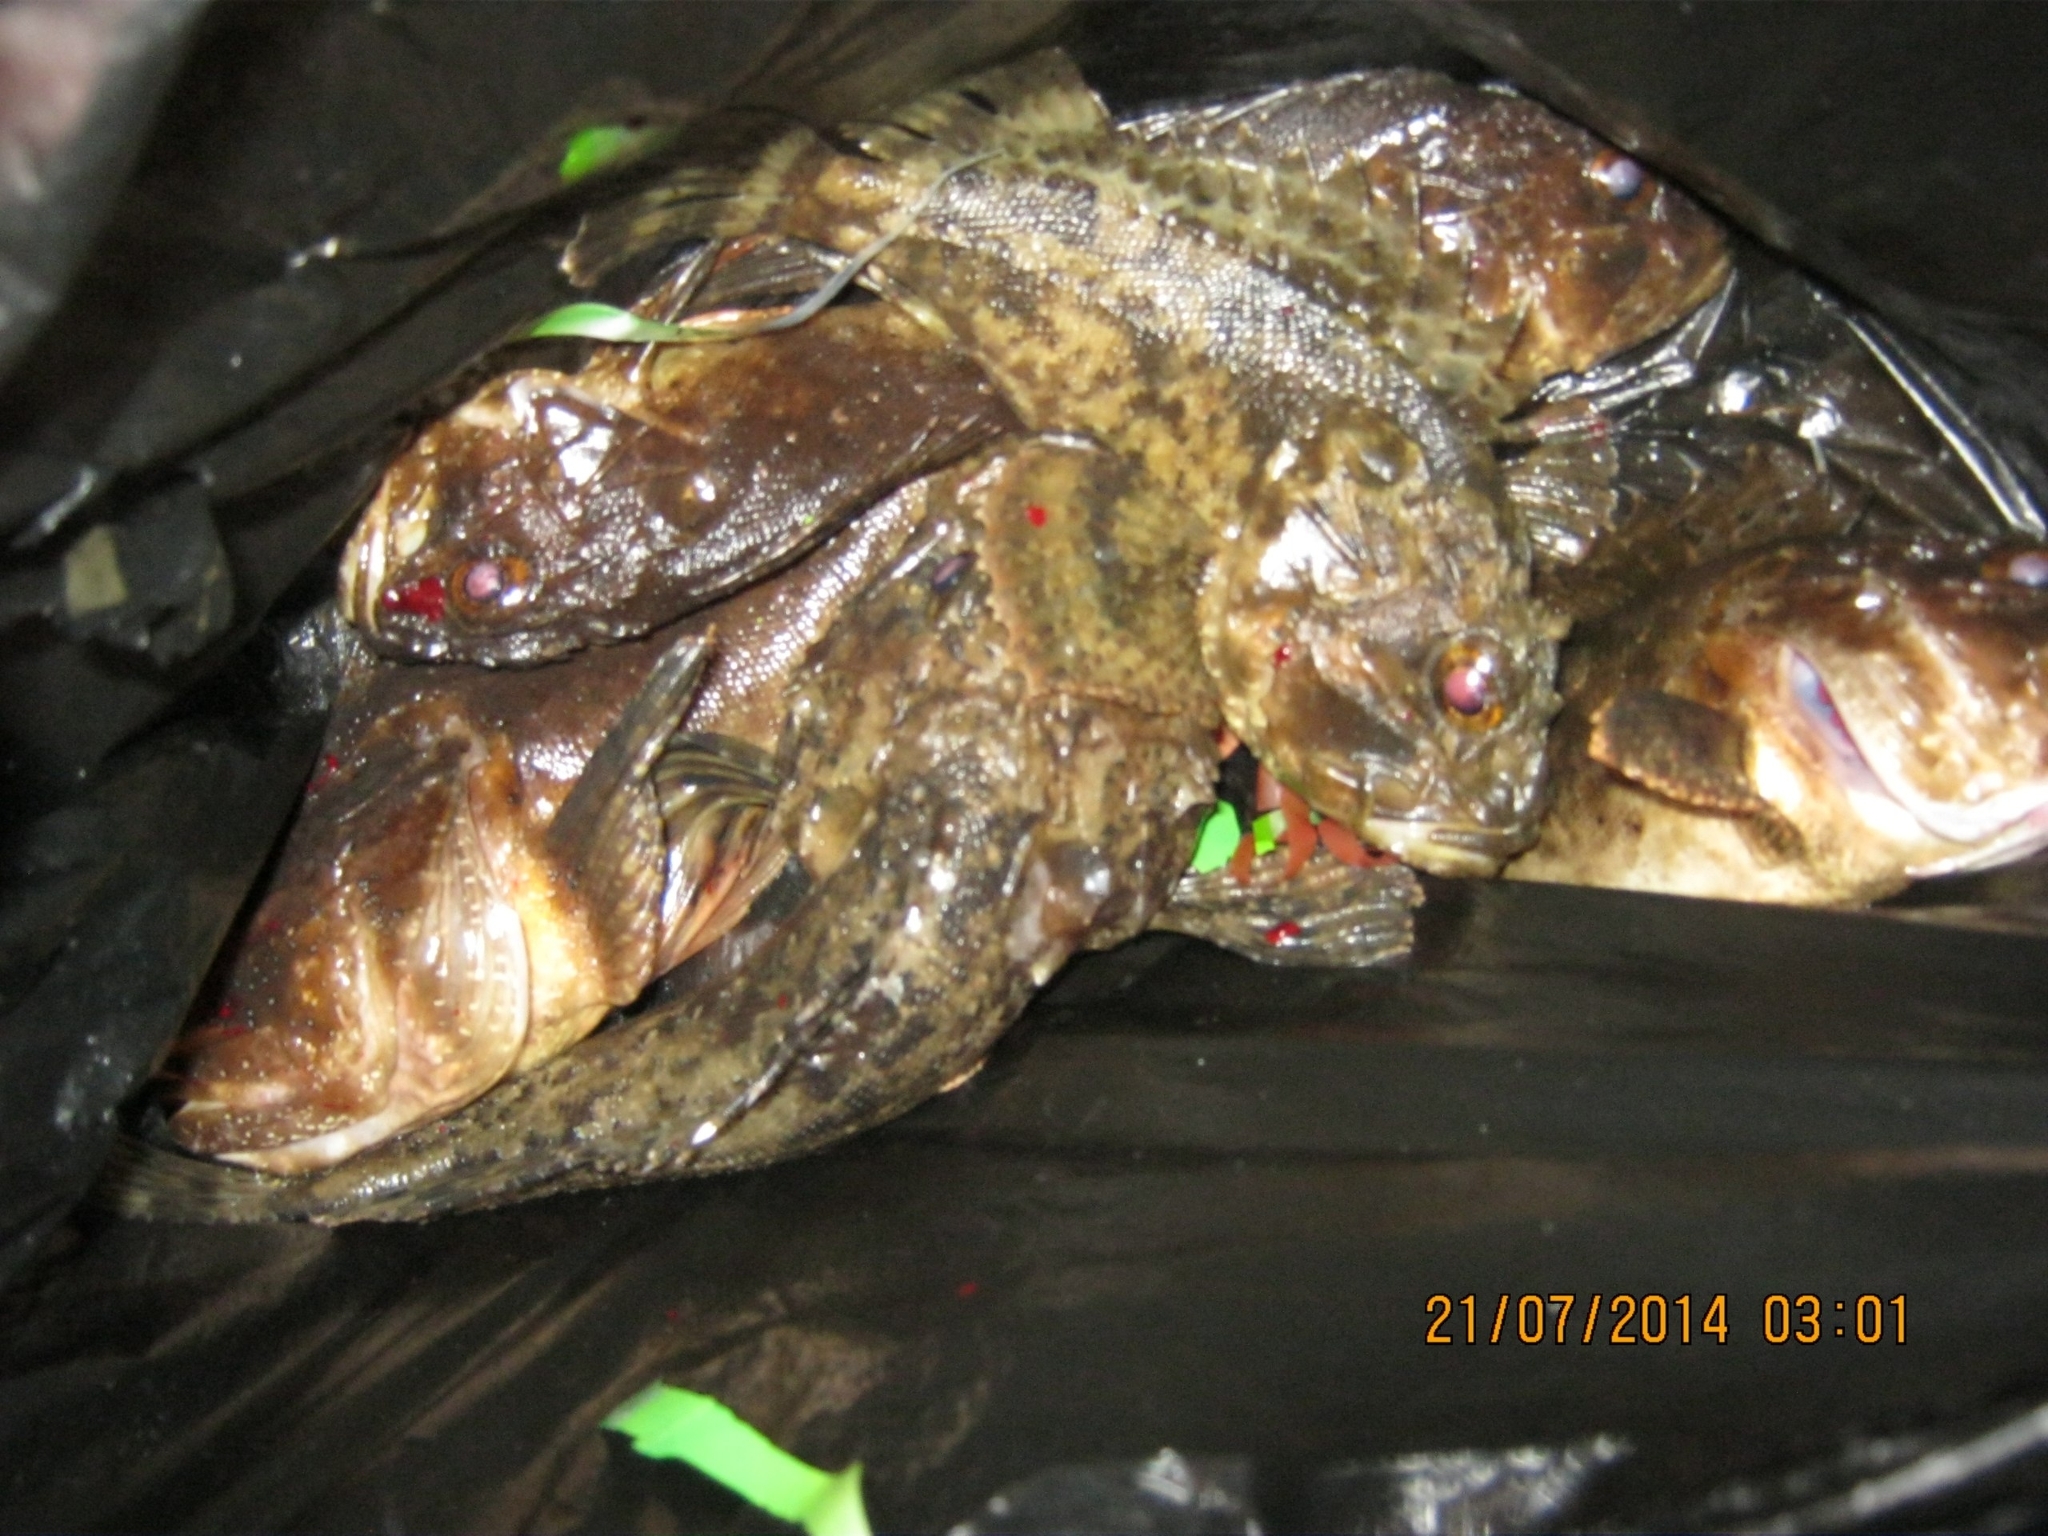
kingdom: Animalia
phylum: Chordata
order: Scorpaeniformes
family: Scorpaenidae
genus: Scorpaena
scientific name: Scorpaena porcus
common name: Black scorpionfish
